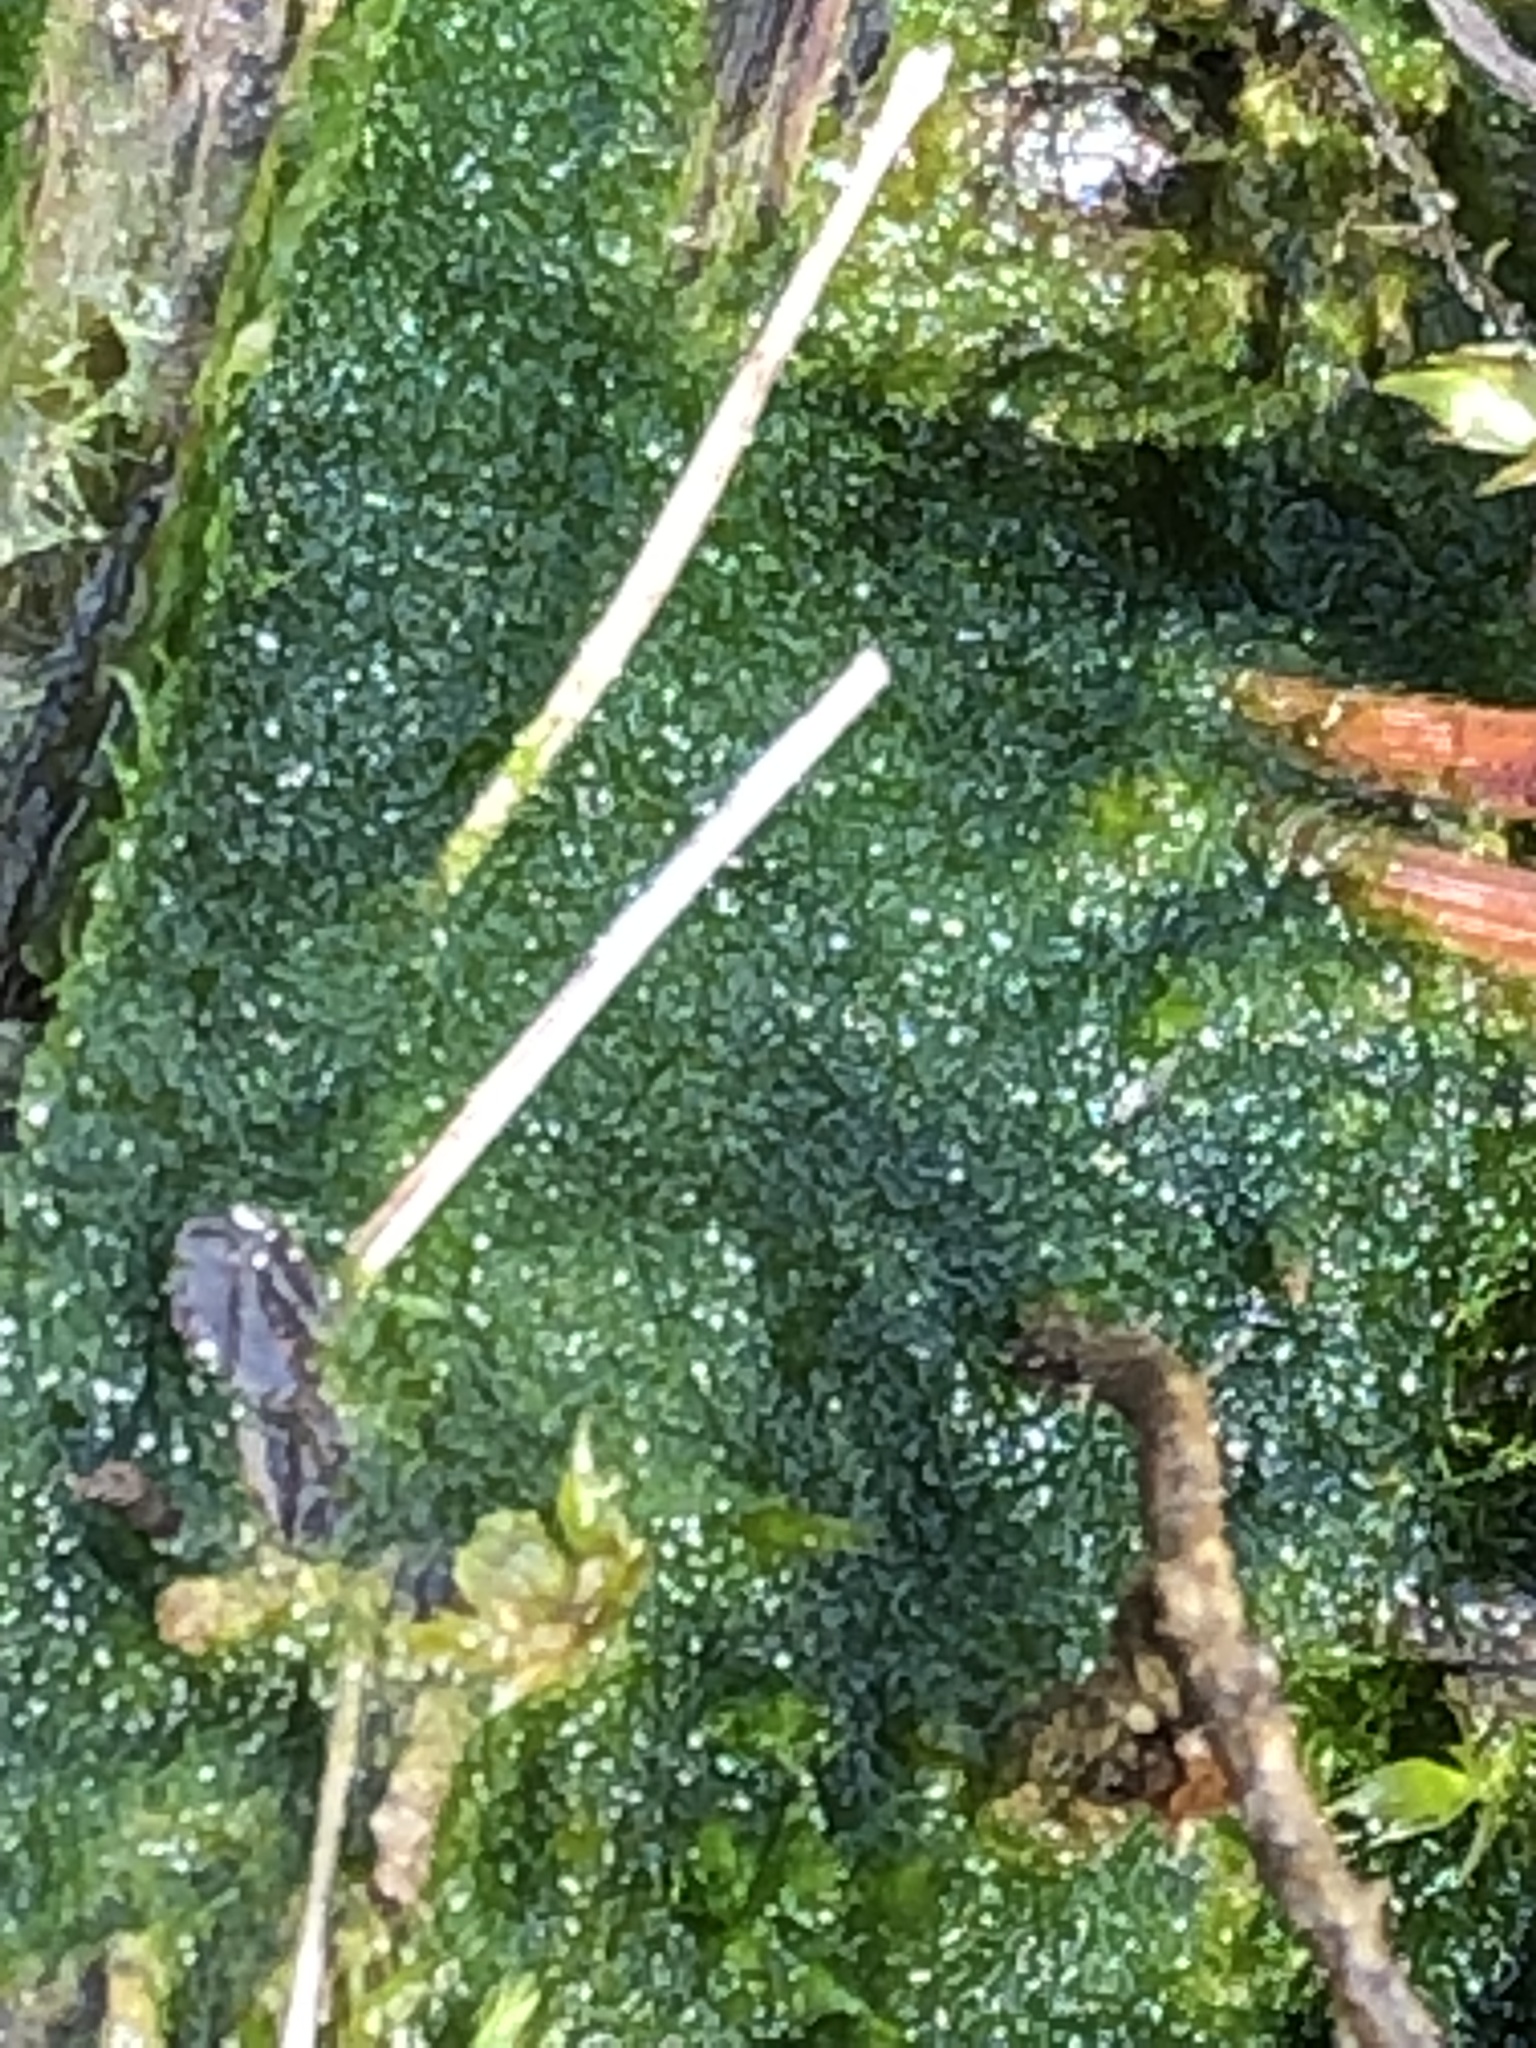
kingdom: Chromista
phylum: Ochrophyta
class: Xanthophyceae
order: Vaucheriales
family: Vaucheriaceae
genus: Vaucheria
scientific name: Vaucheria
